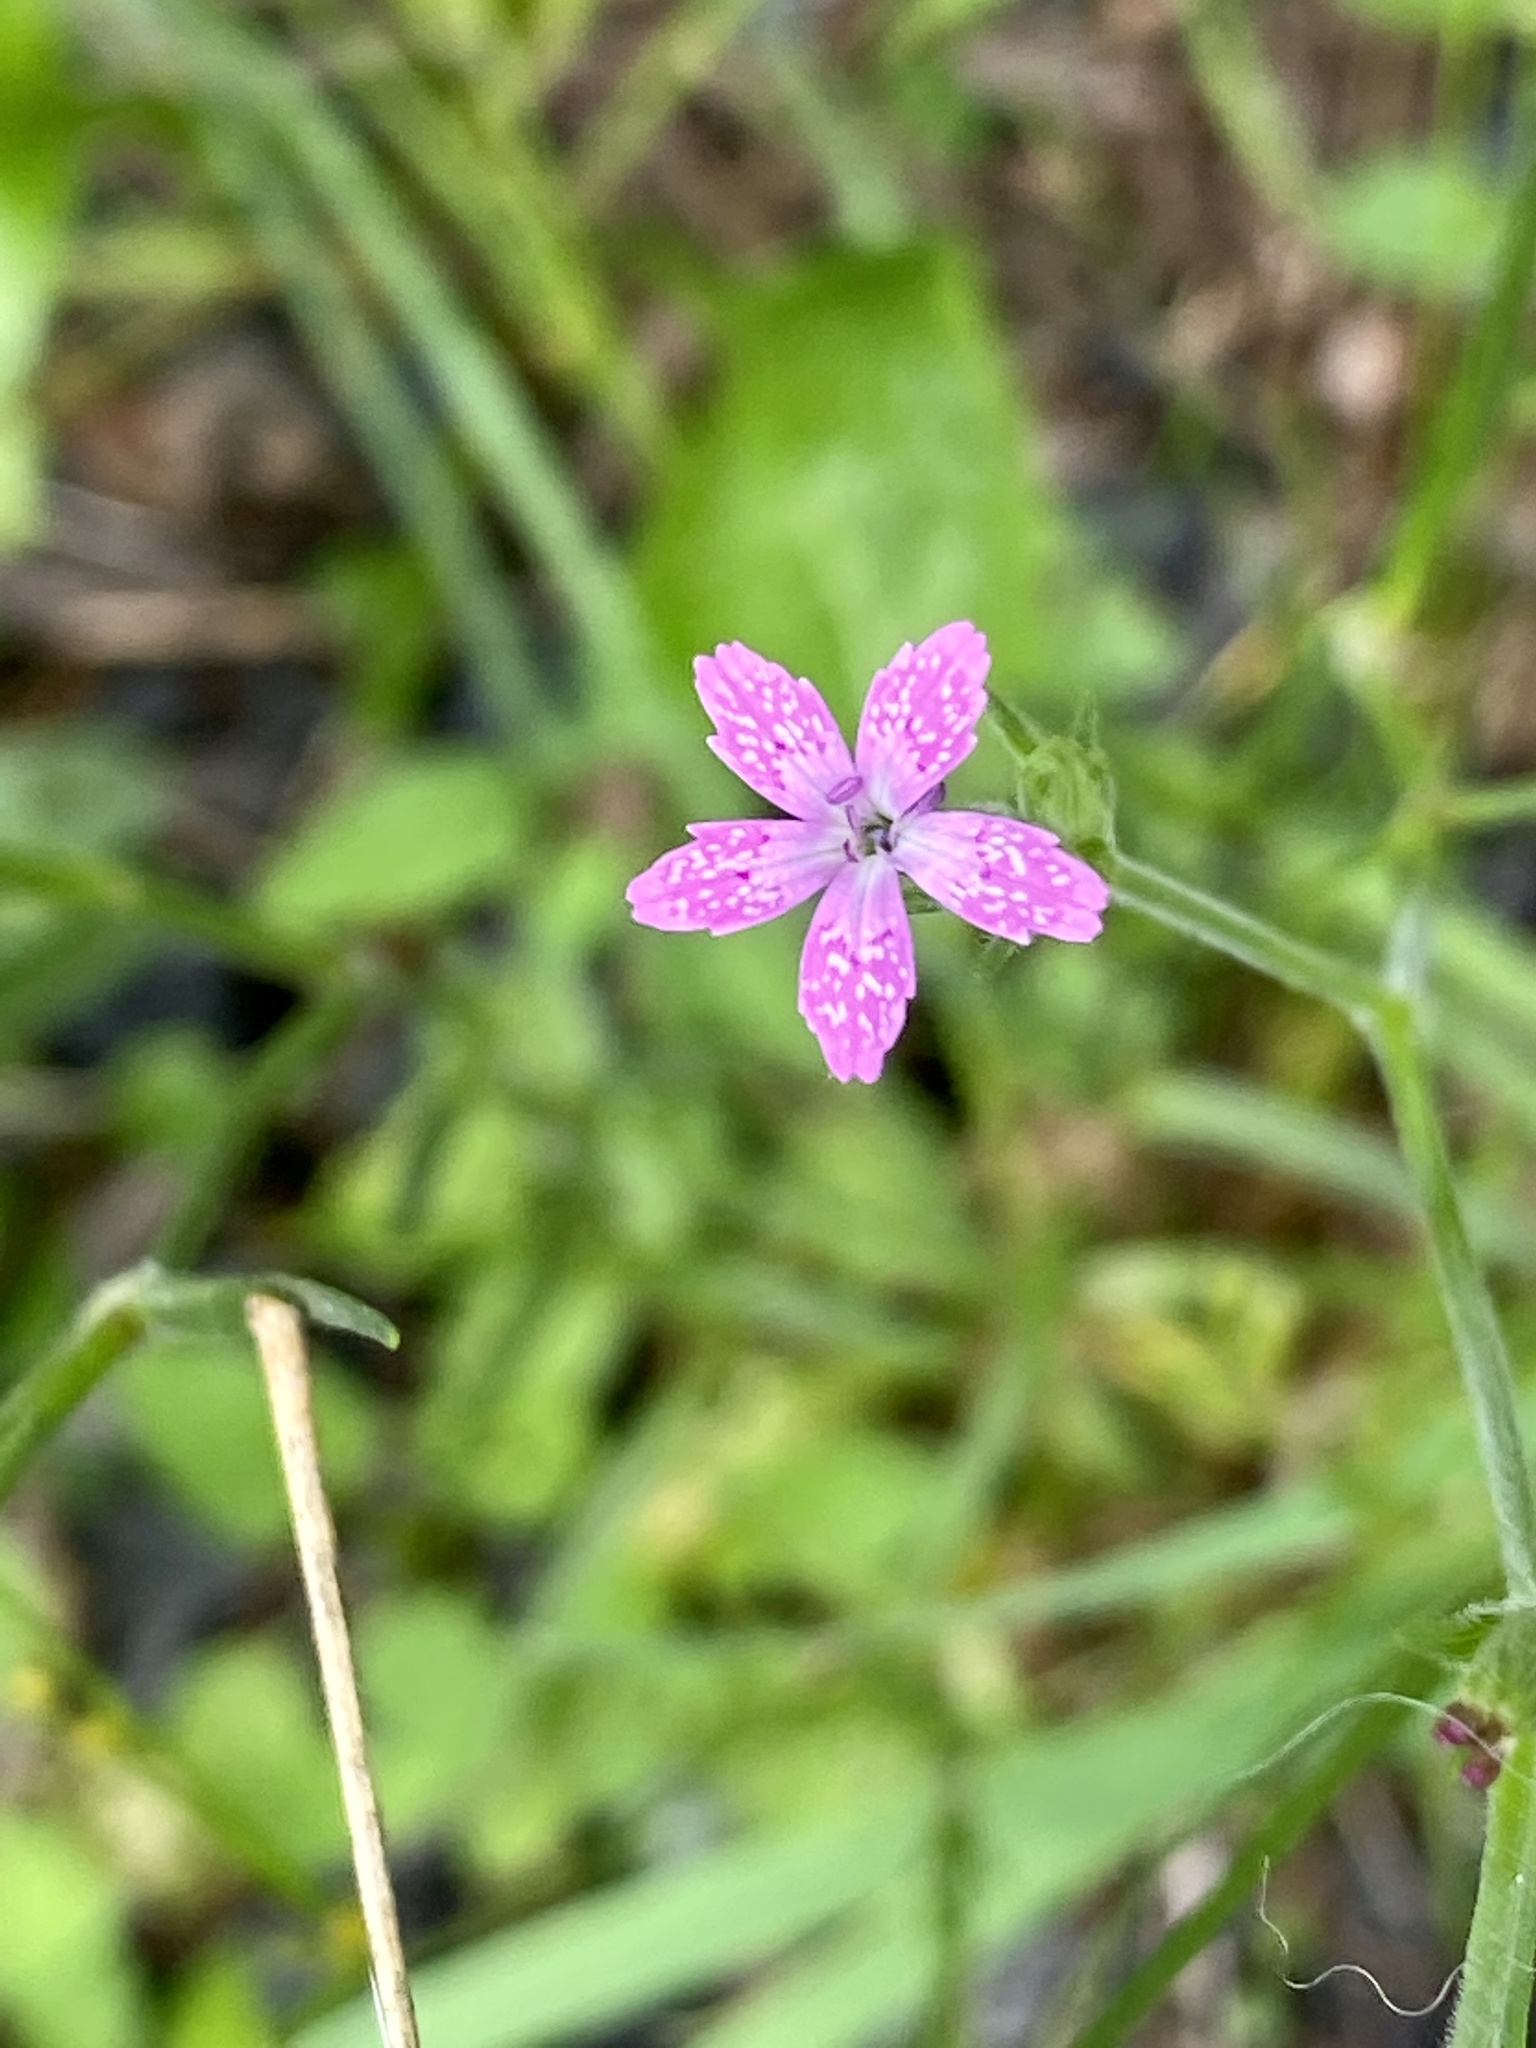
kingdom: Plantae
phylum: Tracheophyta
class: Magnoliopsida
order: Caryophyllales
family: Caryophyllaceae
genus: Dianthus
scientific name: Dianthus armeria
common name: Deptford pink
